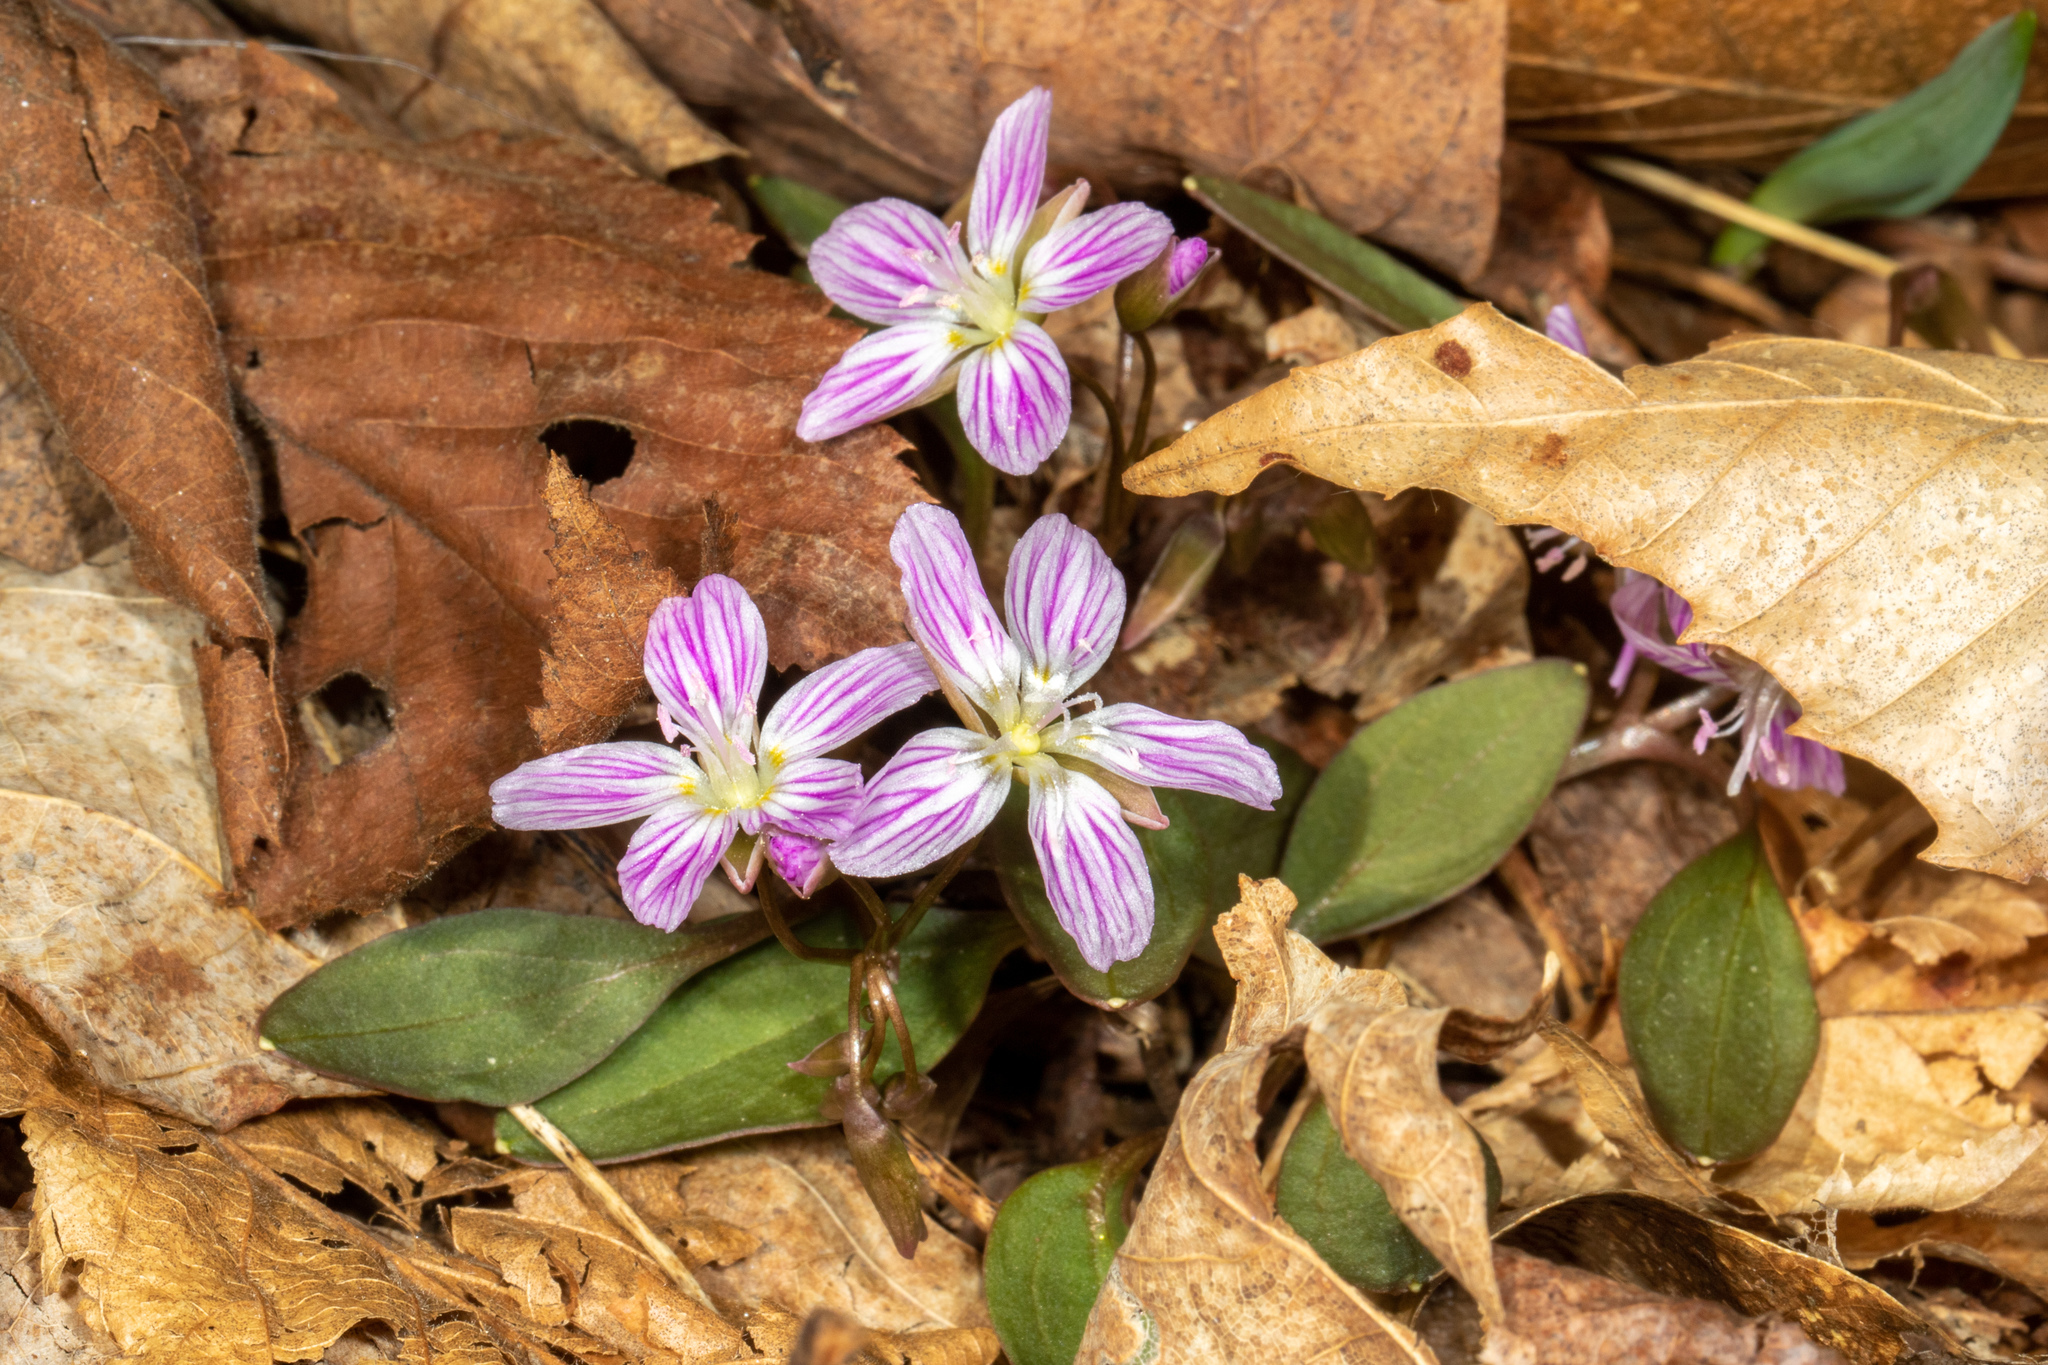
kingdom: Plantae
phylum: Tracheophyta
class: Magnoliopsida
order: Caryophyllales
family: Montiaceae
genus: Claytonia
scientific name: Claytonia caroliniana
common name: Carolina spring beauty
